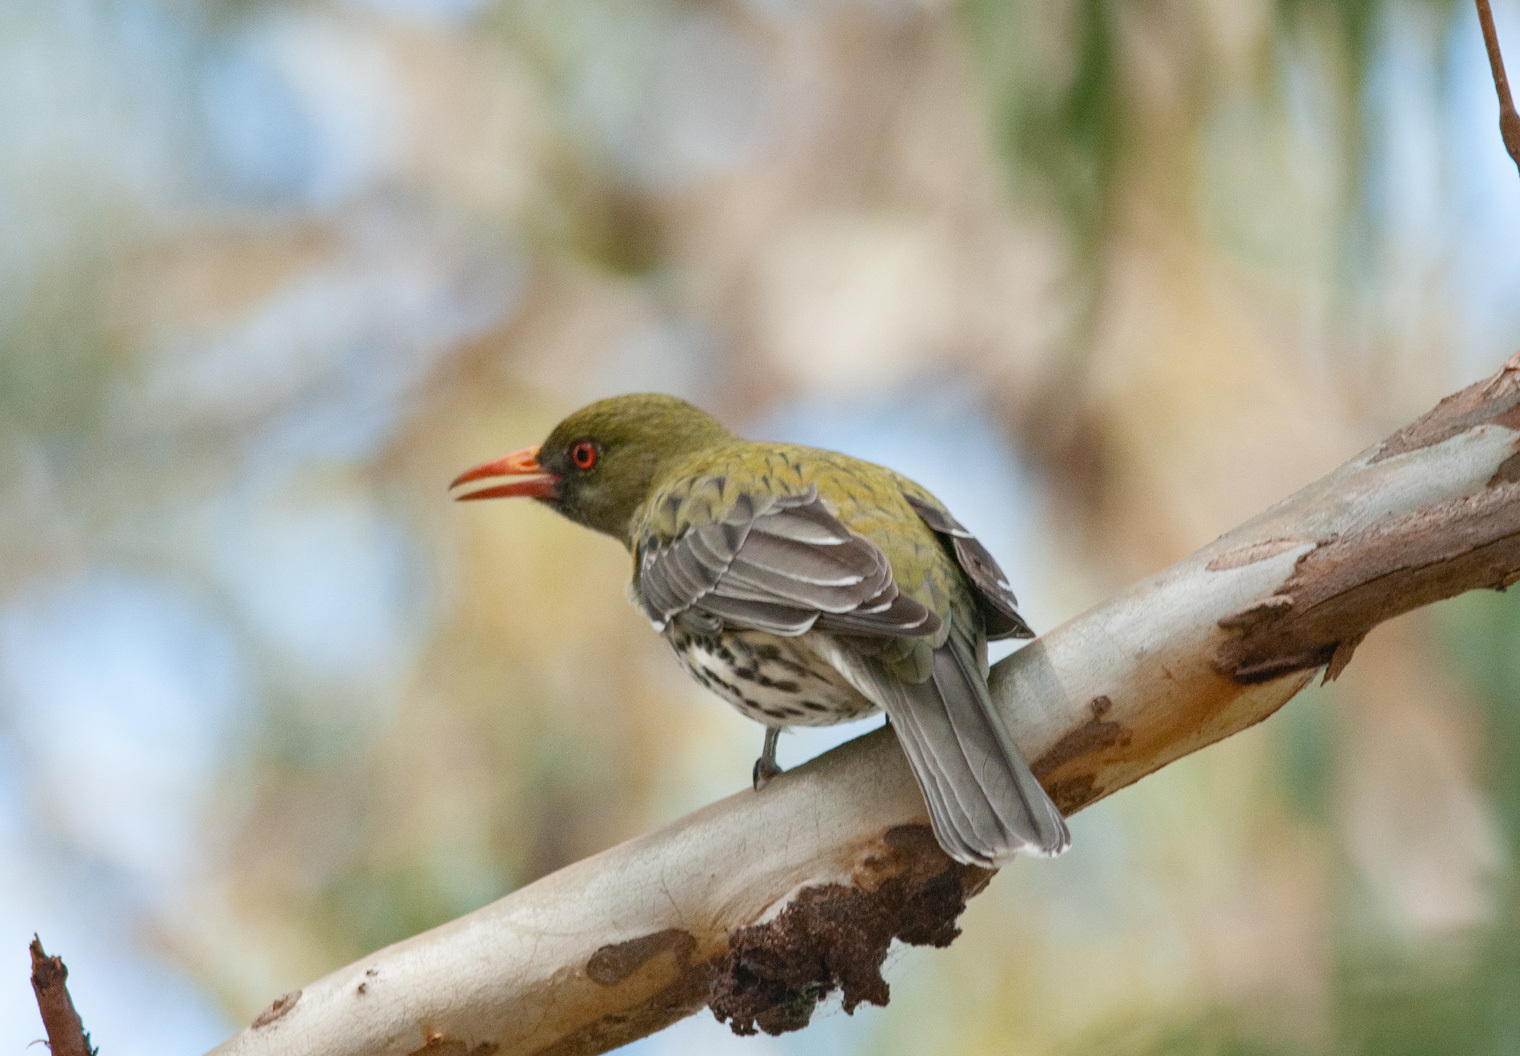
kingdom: Animalia
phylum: Chordata
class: Aves
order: Passeriformes
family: Oriolidae
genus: Oriolus
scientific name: Oriolus sagittatus
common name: Olive-backed oriole
